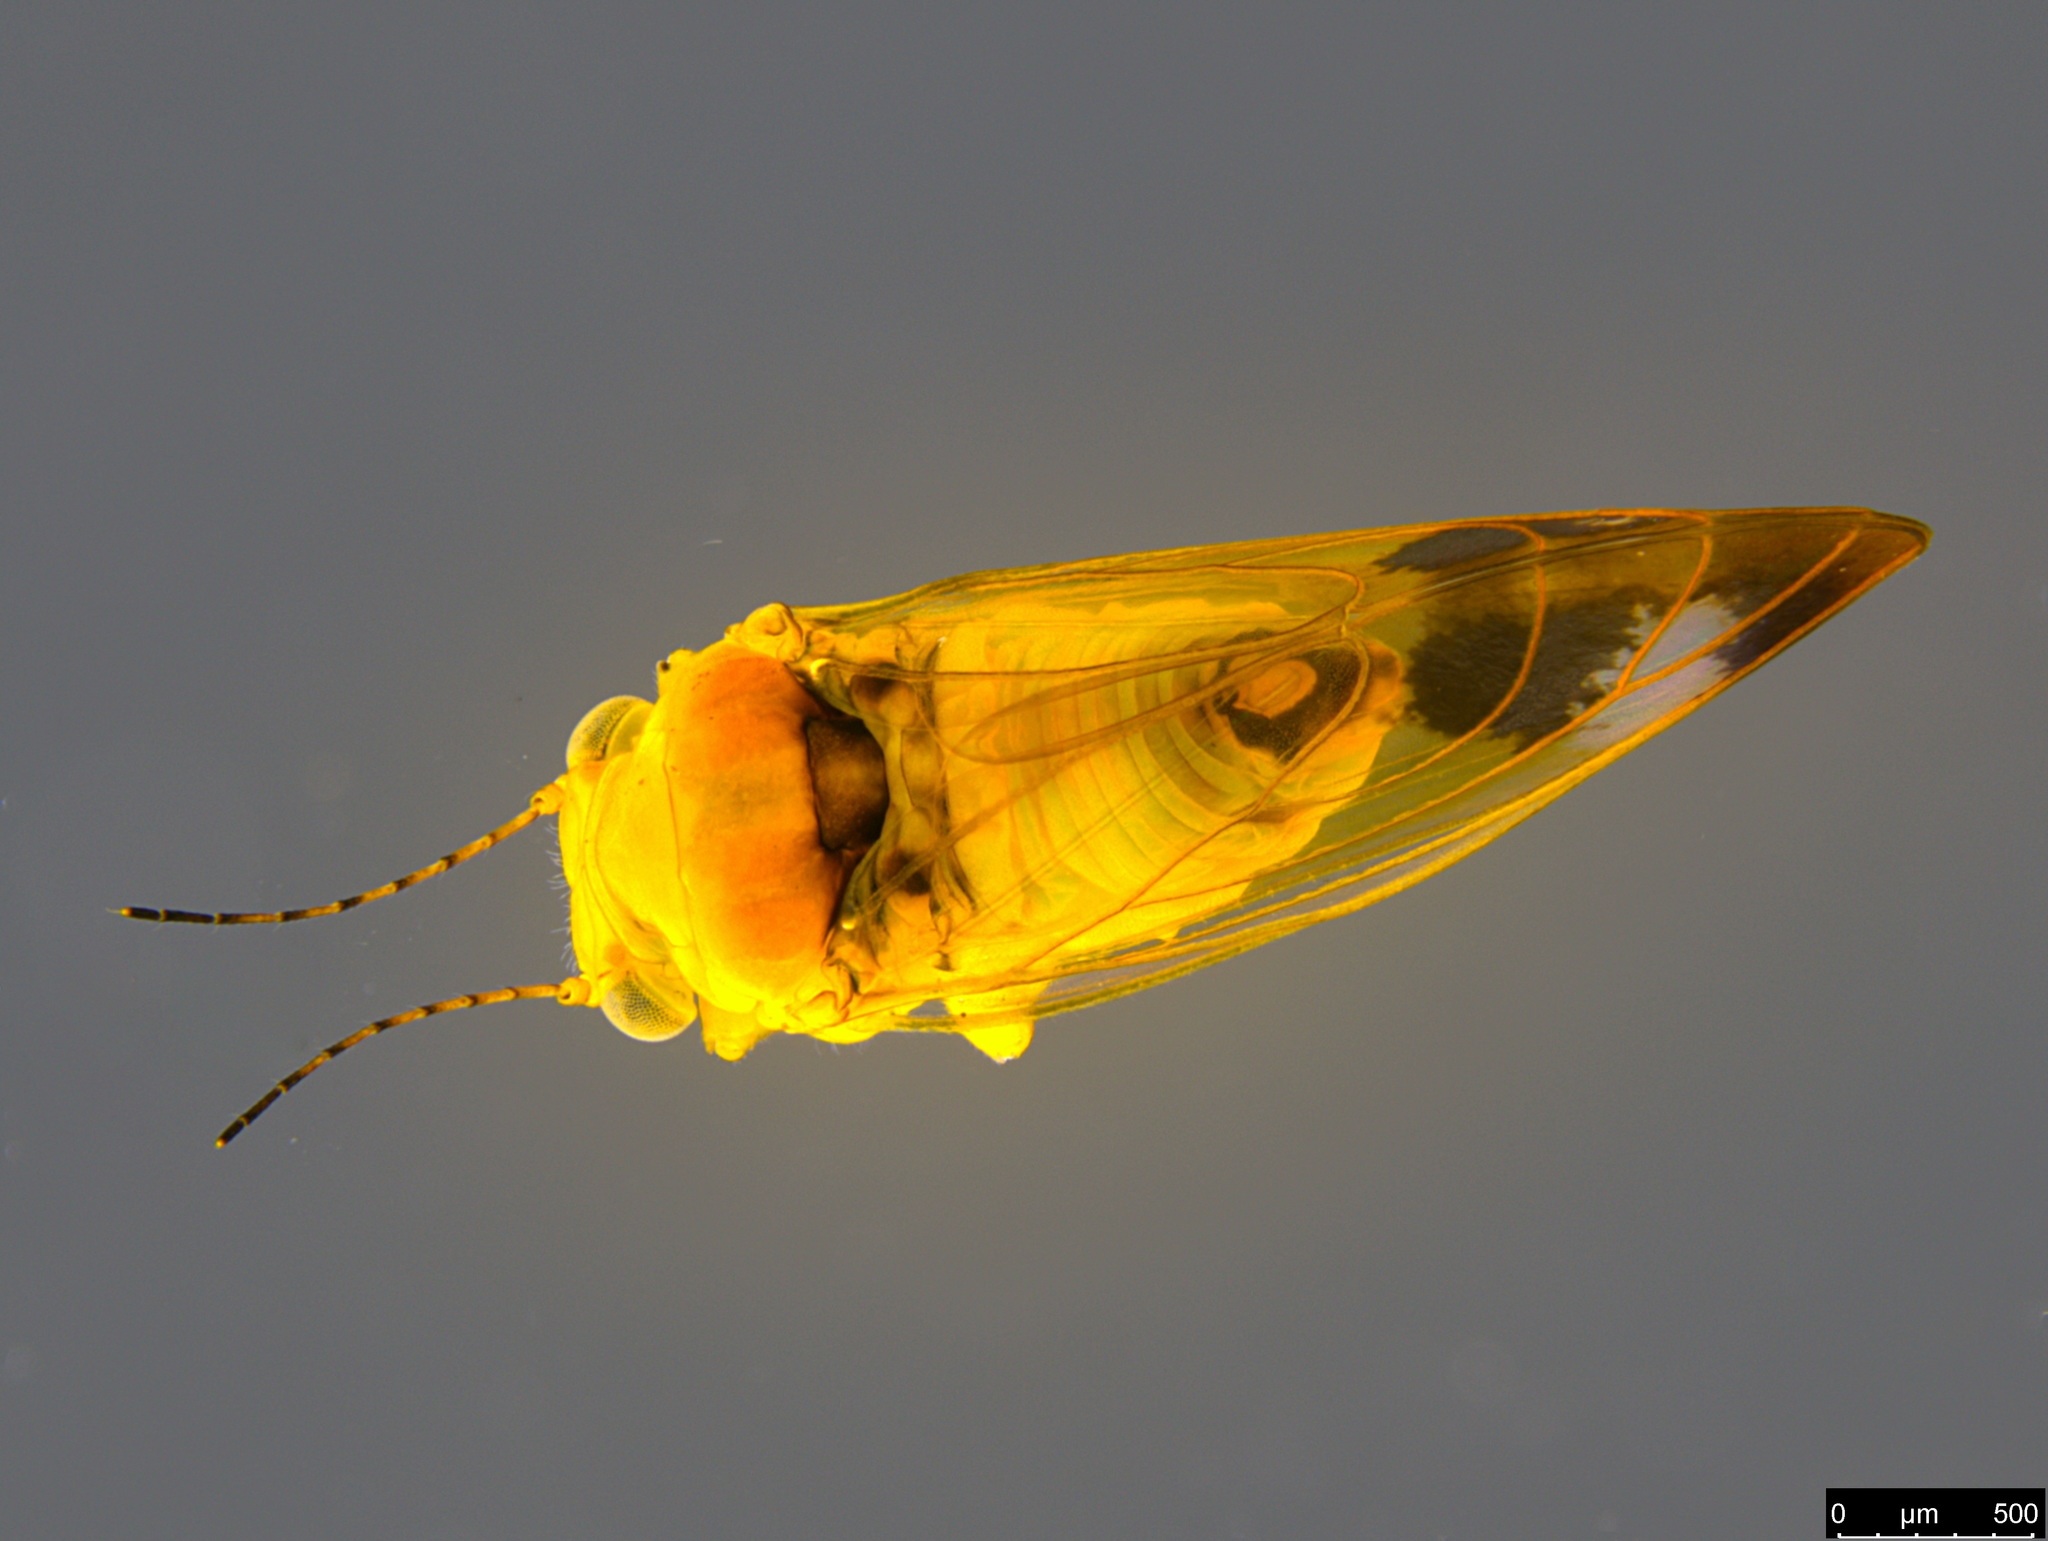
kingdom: Animalia
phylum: Arthropoda
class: Insecta
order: Hemiptera
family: Aphalaridae
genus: Australopsylla
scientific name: Australopsylla revoluta
